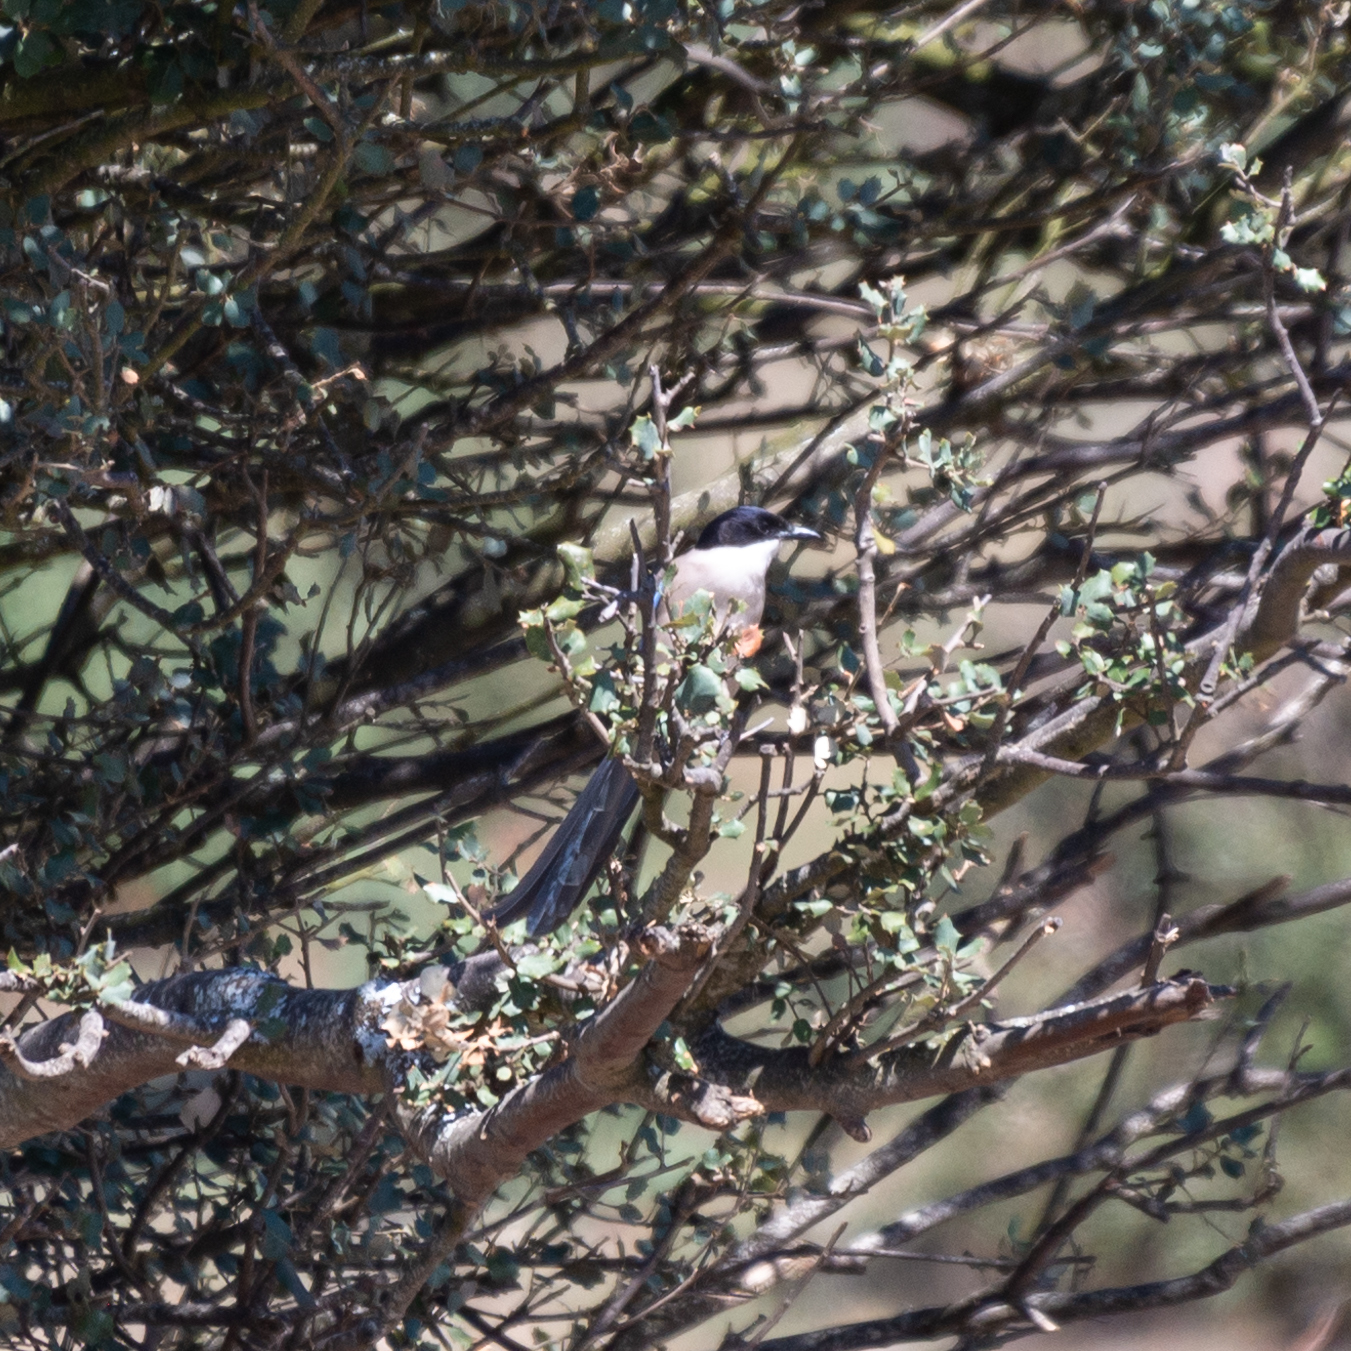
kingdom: Animalia
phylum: Chordata
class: Aves
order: Passeriformes
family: Corvidae
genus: Cyanopica
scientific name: Cyanopica cooki
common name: Iberian magpie
